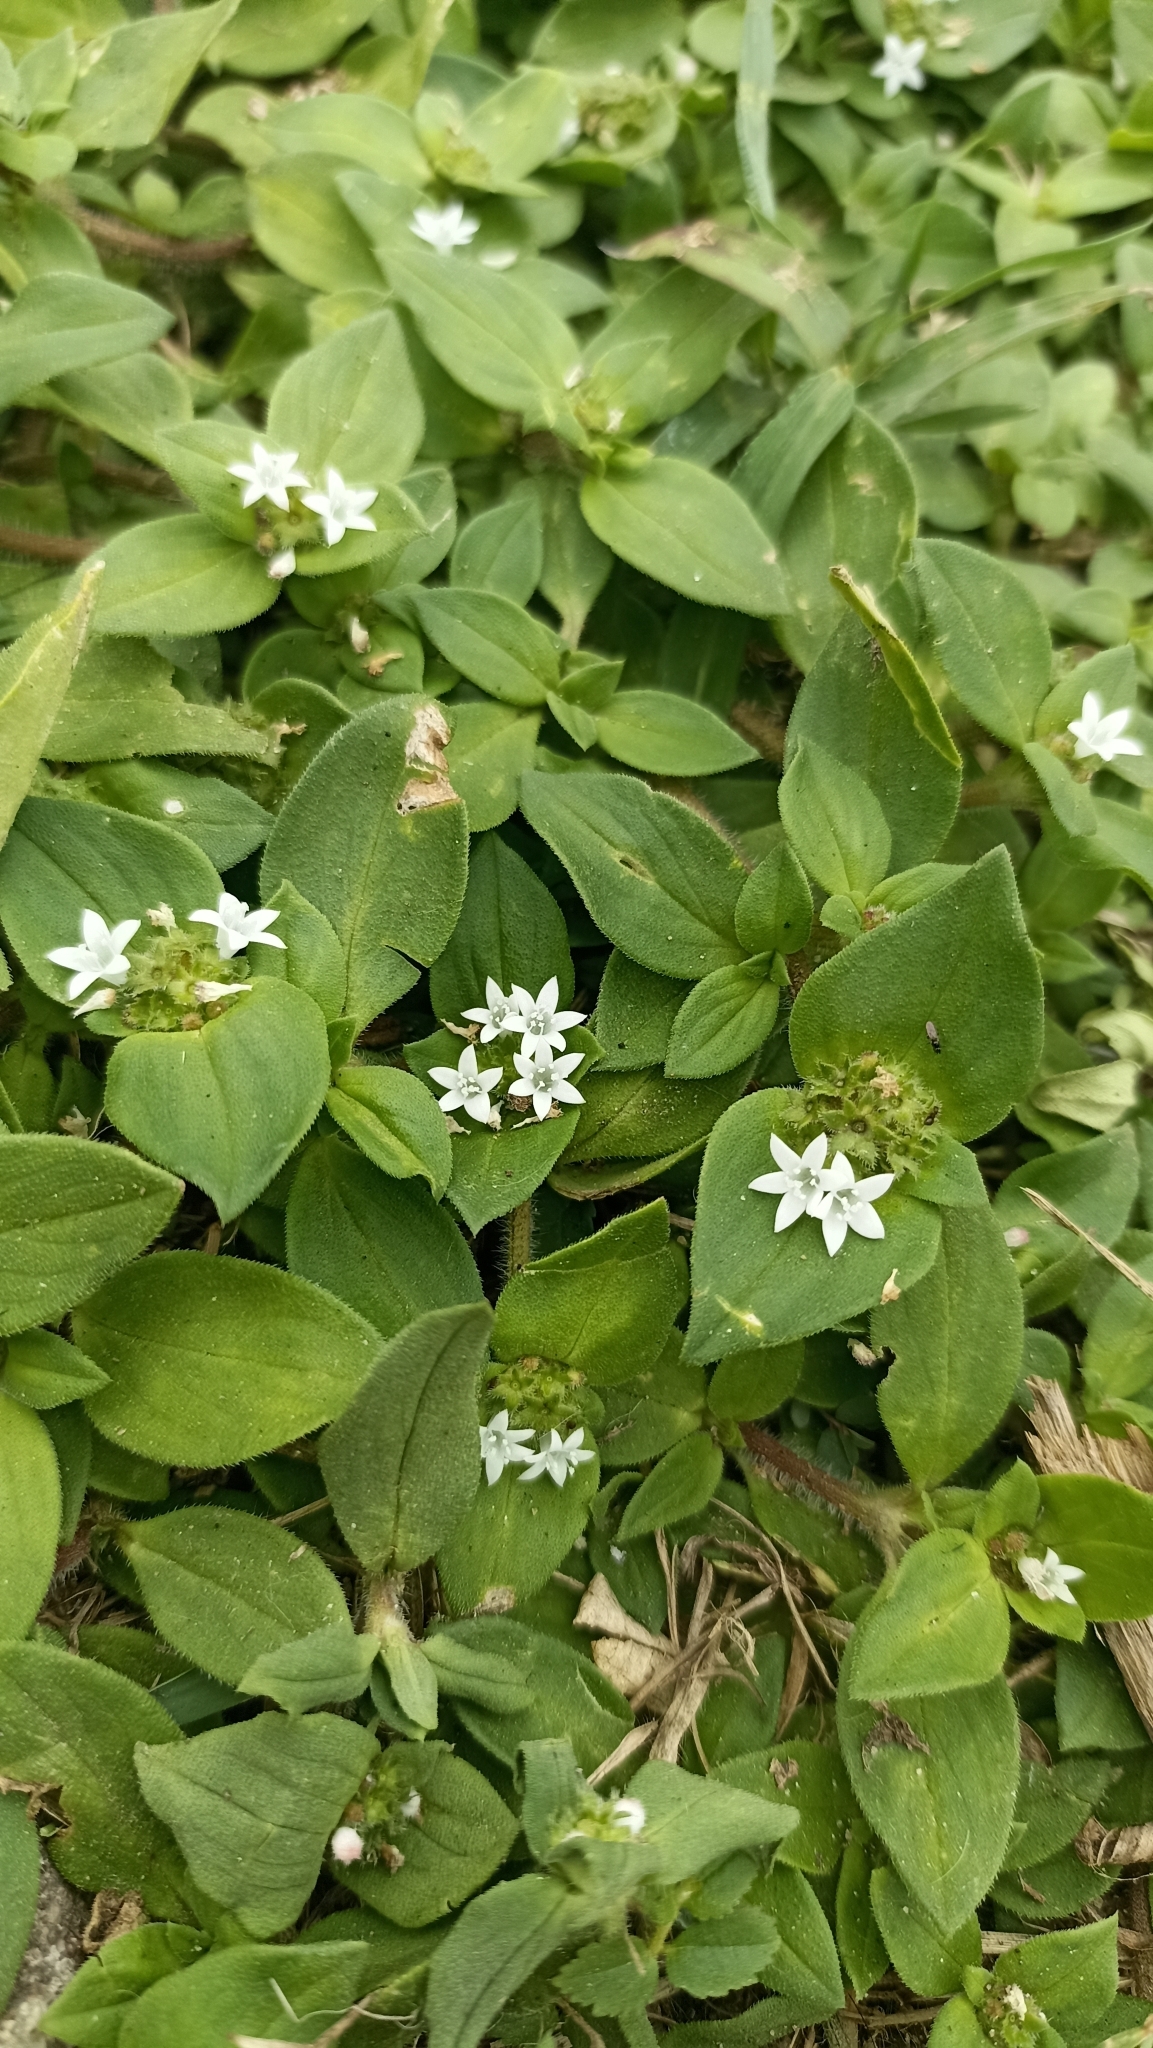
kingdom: Plantae
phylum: Tracheophyta
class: Magnoliopsida
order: Gentianales
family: Rubiaceae
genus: Richardia
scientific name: Richardia brasiliensis
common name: Tropical mexican clover
